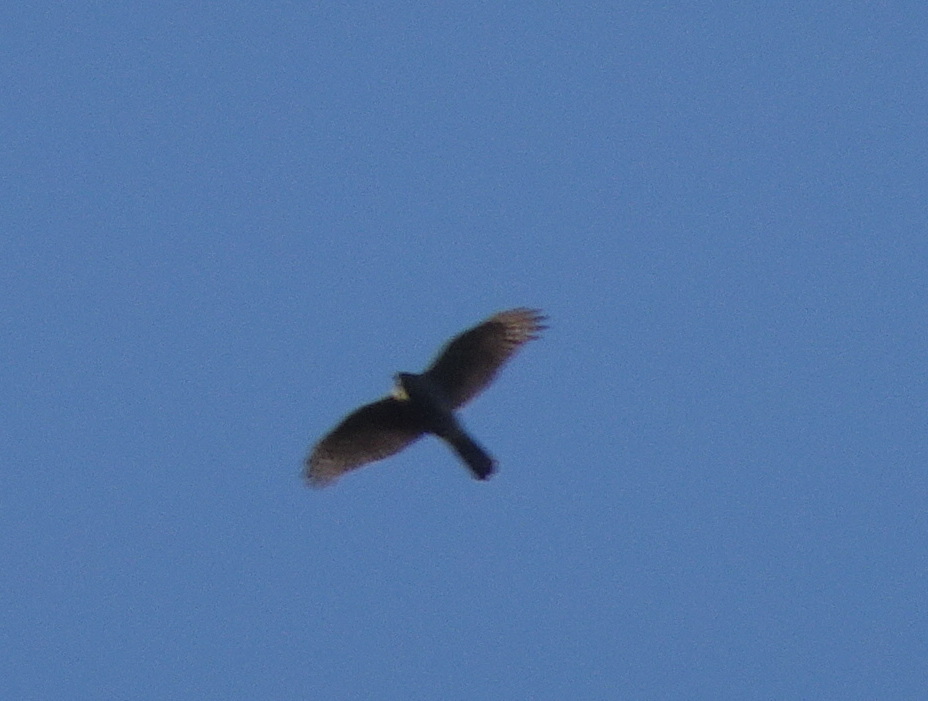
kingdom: Animalia
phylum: Chordata
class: Aves
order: Accipitriformes
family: Accipitridae
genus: Accipiter
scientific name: Accipiter nisus
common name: Eurasian sparrowhawk
